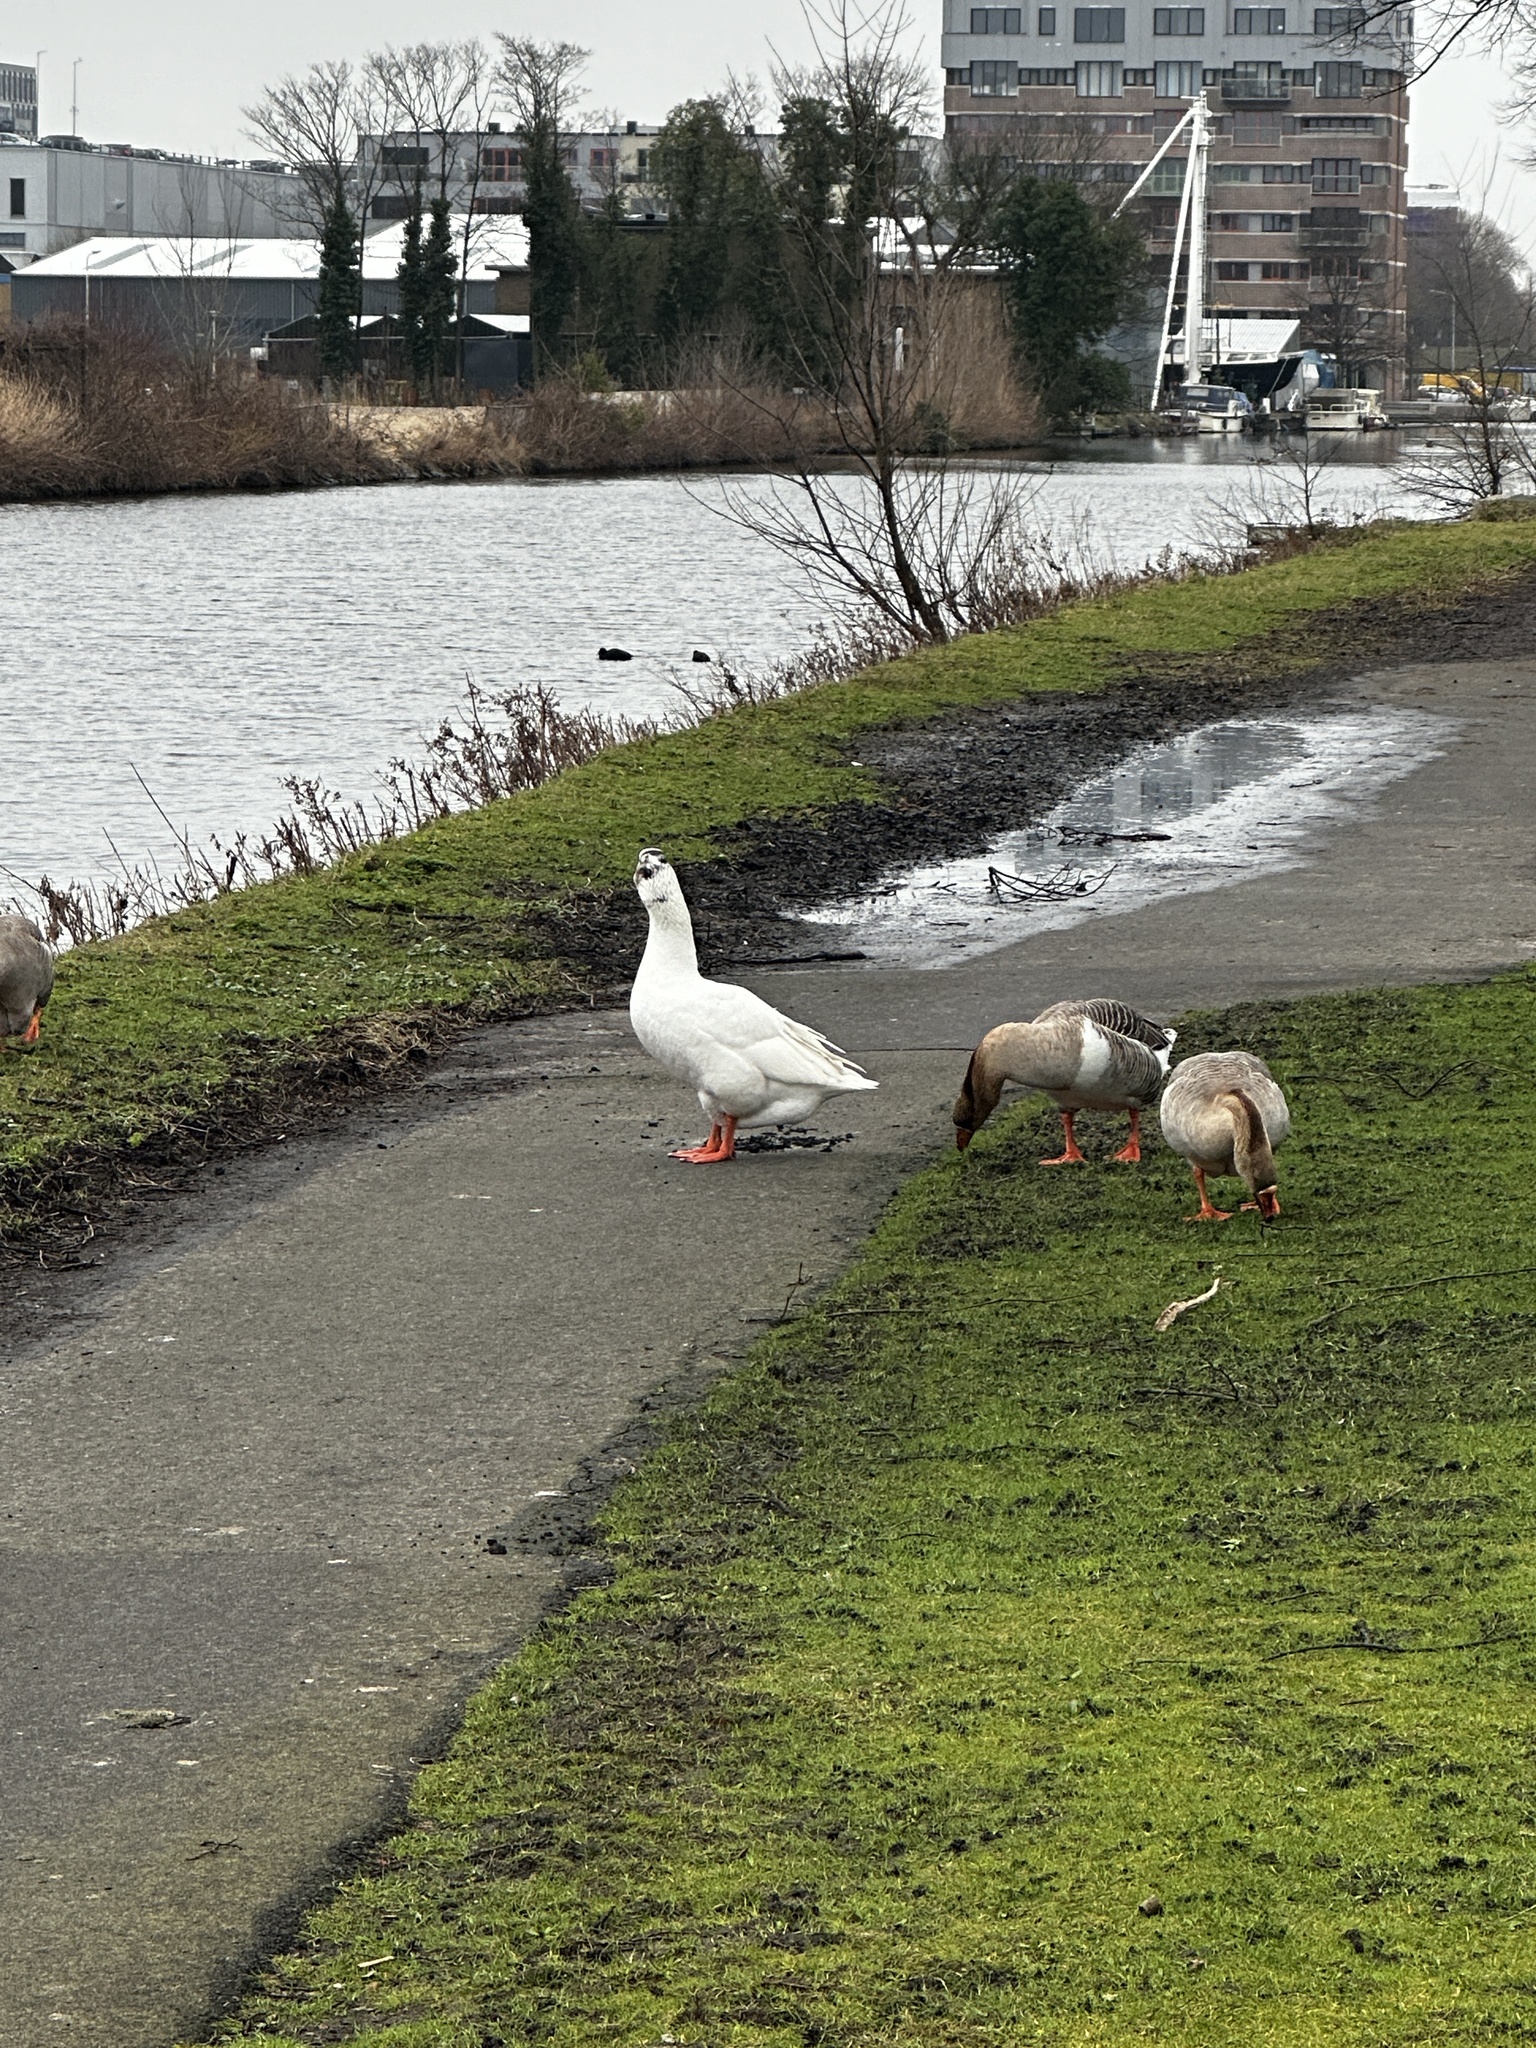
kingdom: Animalia
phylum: Chordata
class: Aves
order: Anseriformes
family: Anatidae
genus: Anser
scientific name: Anser anser
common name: Greylag goose
